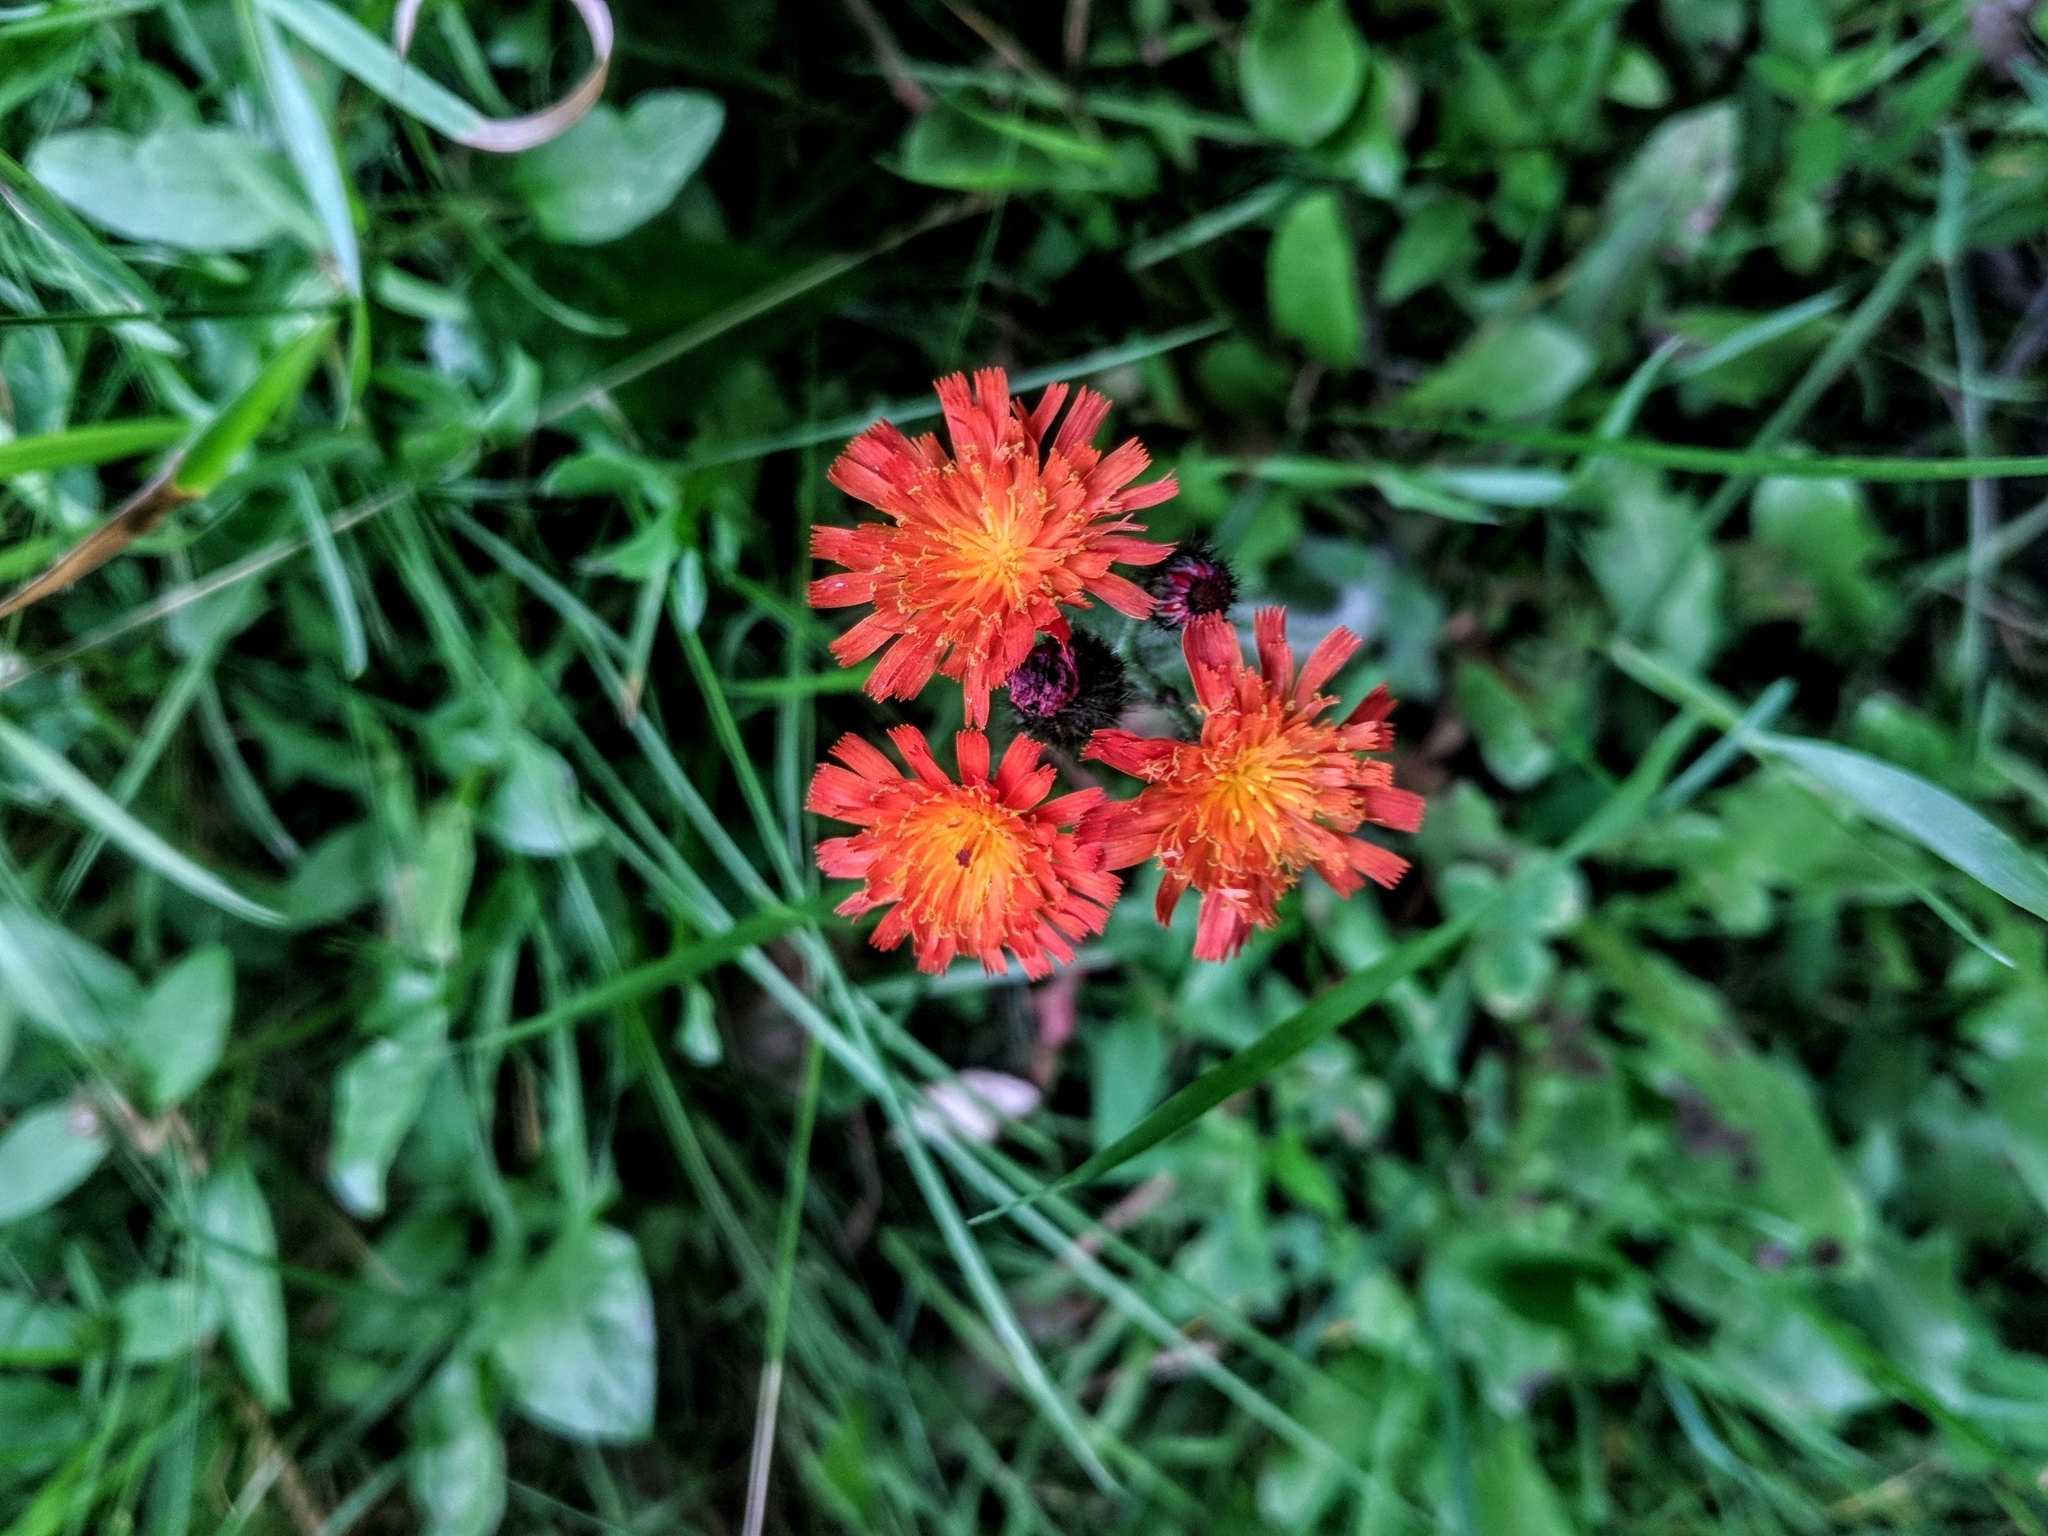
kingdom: Plantae
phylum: Tracheophyta
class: Magnoliopsida
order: Asterales
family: Asteraceae
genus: Pilosella
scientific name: Pilosella aurantiaca
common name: Fox-and-cubs
